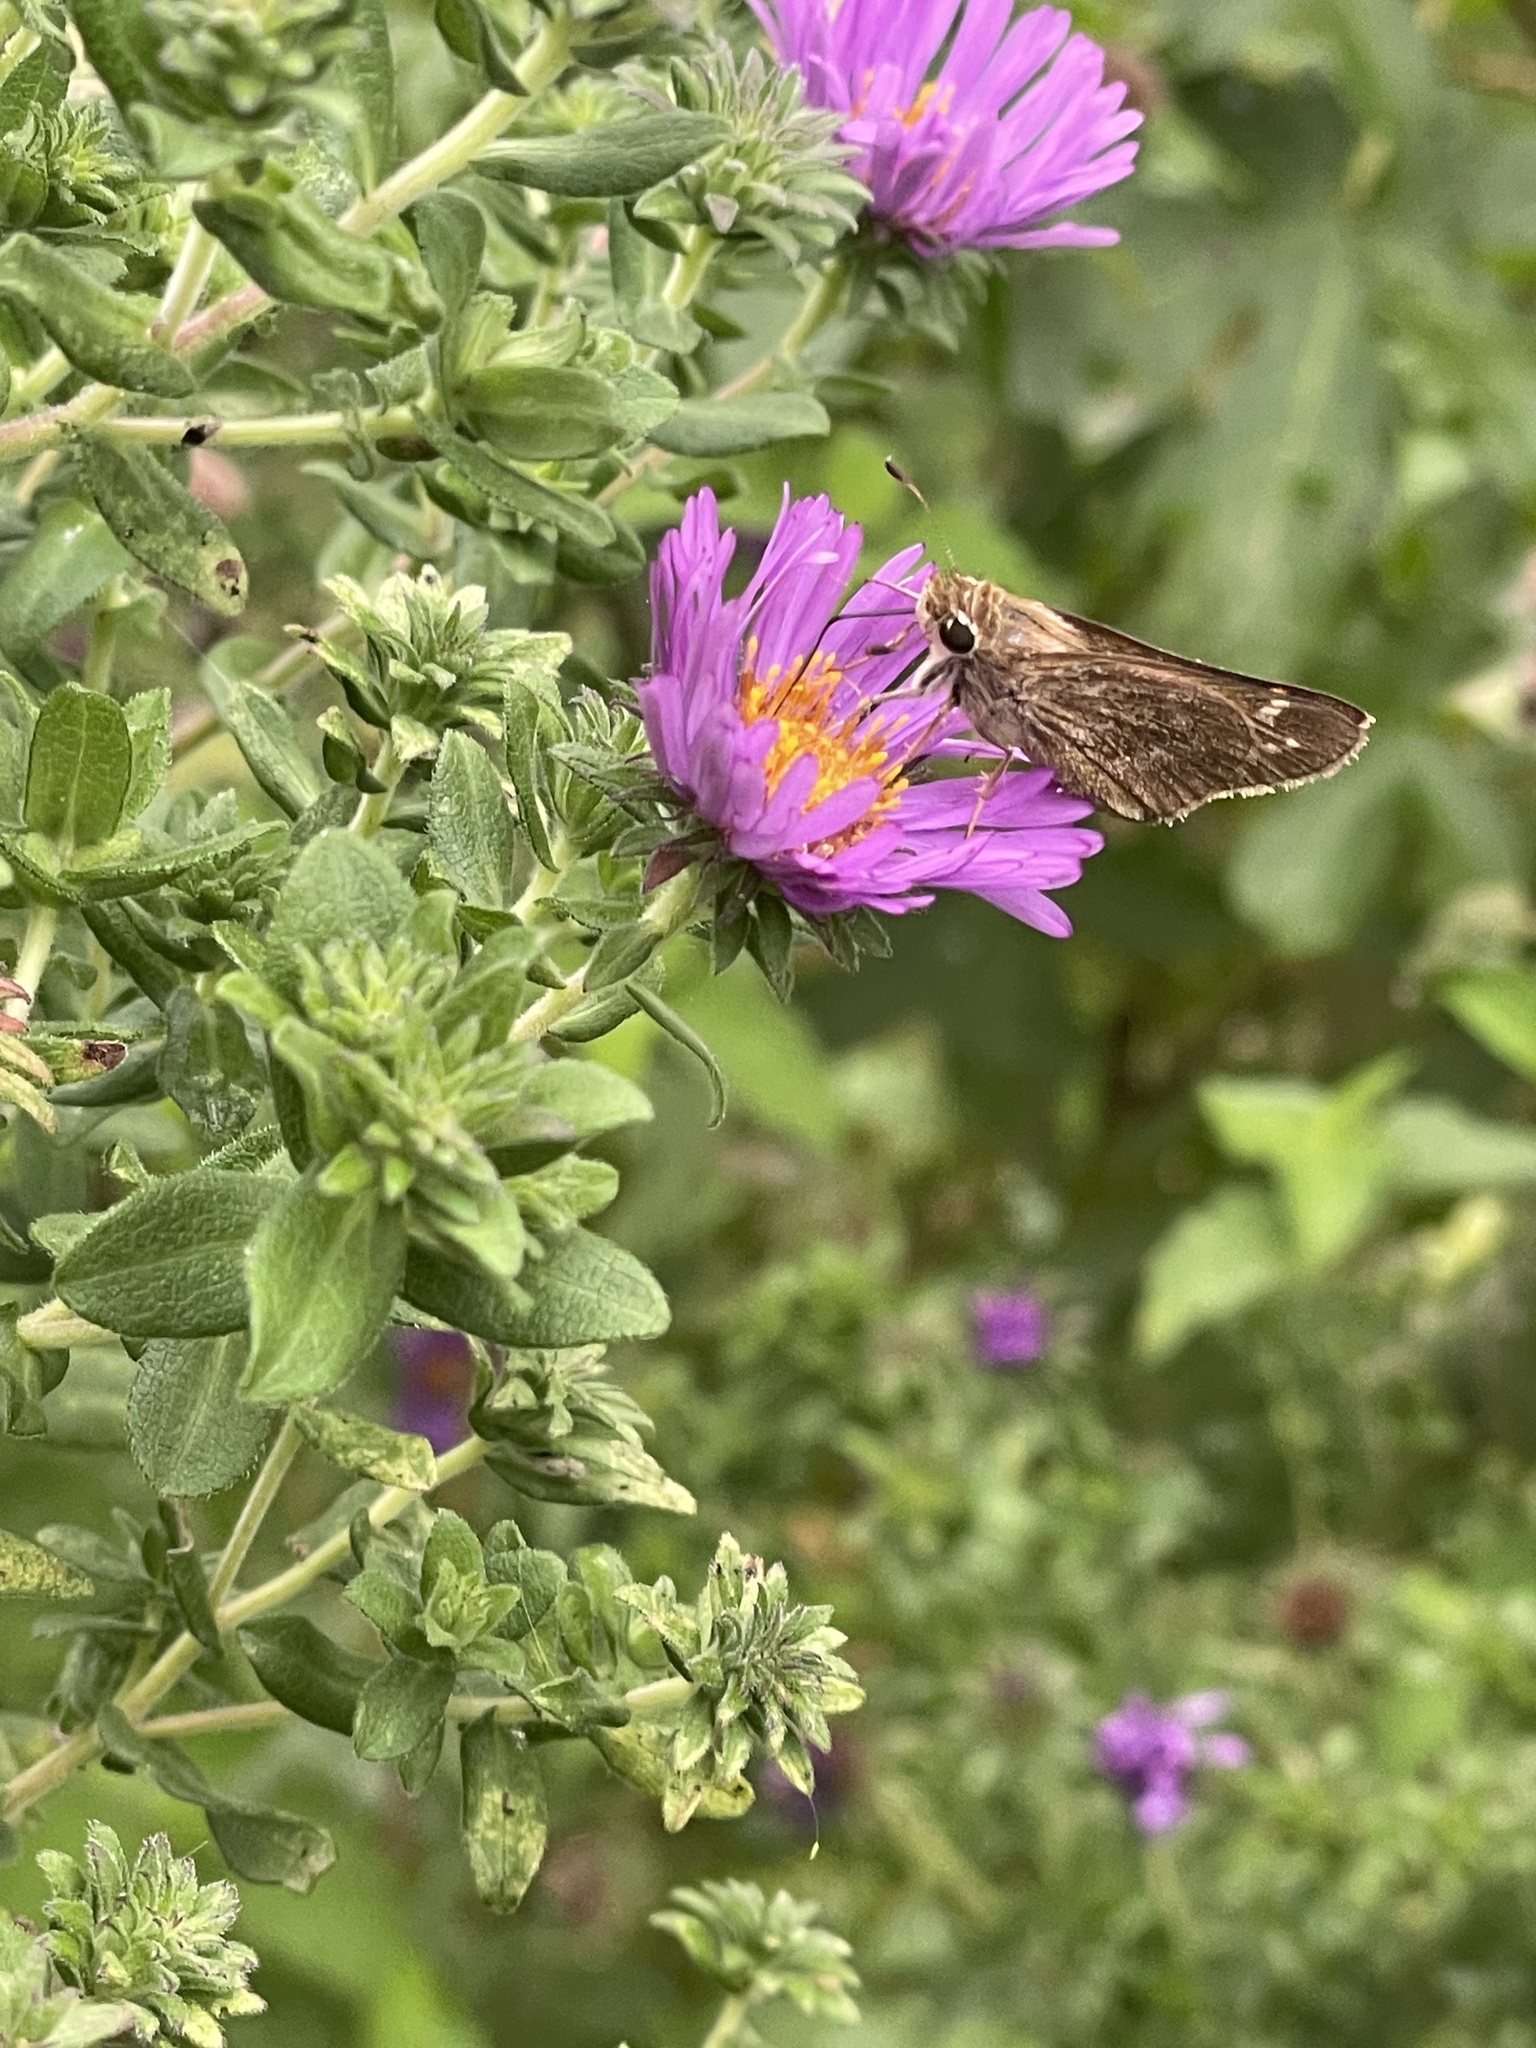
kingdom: Animalia
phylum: Arthropoda
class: Insecta
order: Lepidoptera
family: Hesperiidae
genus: Atalopedes
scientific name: Atalopedes
